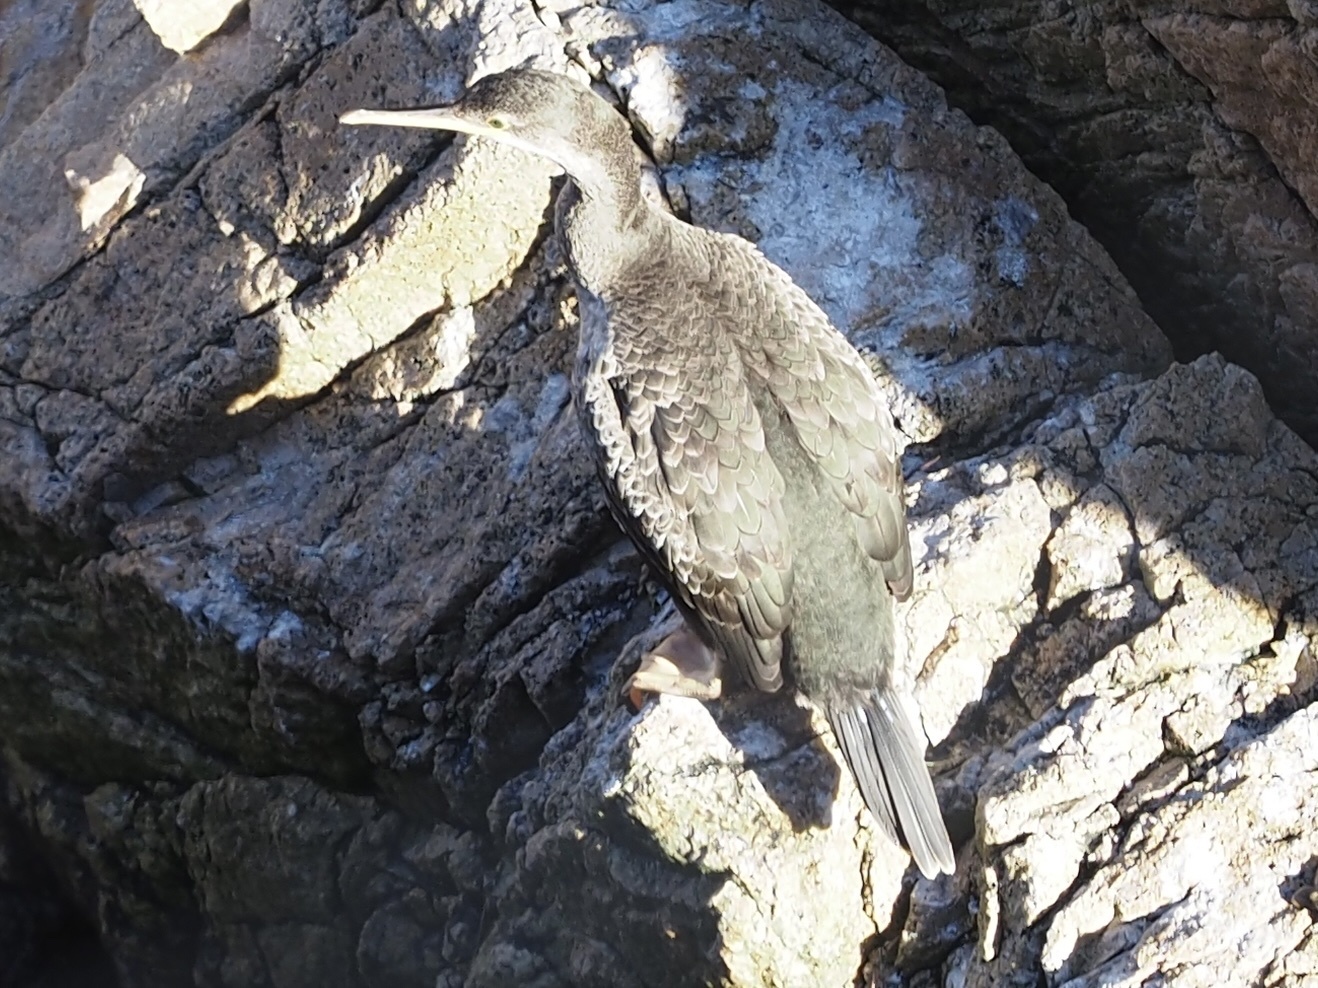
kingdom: Animalia
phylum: Chordata
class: Aves
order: Suliformes
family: Phalacrocoracidae
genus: Phalacrocorax
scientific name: Phalacrocorax aristotelis
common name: European shag
